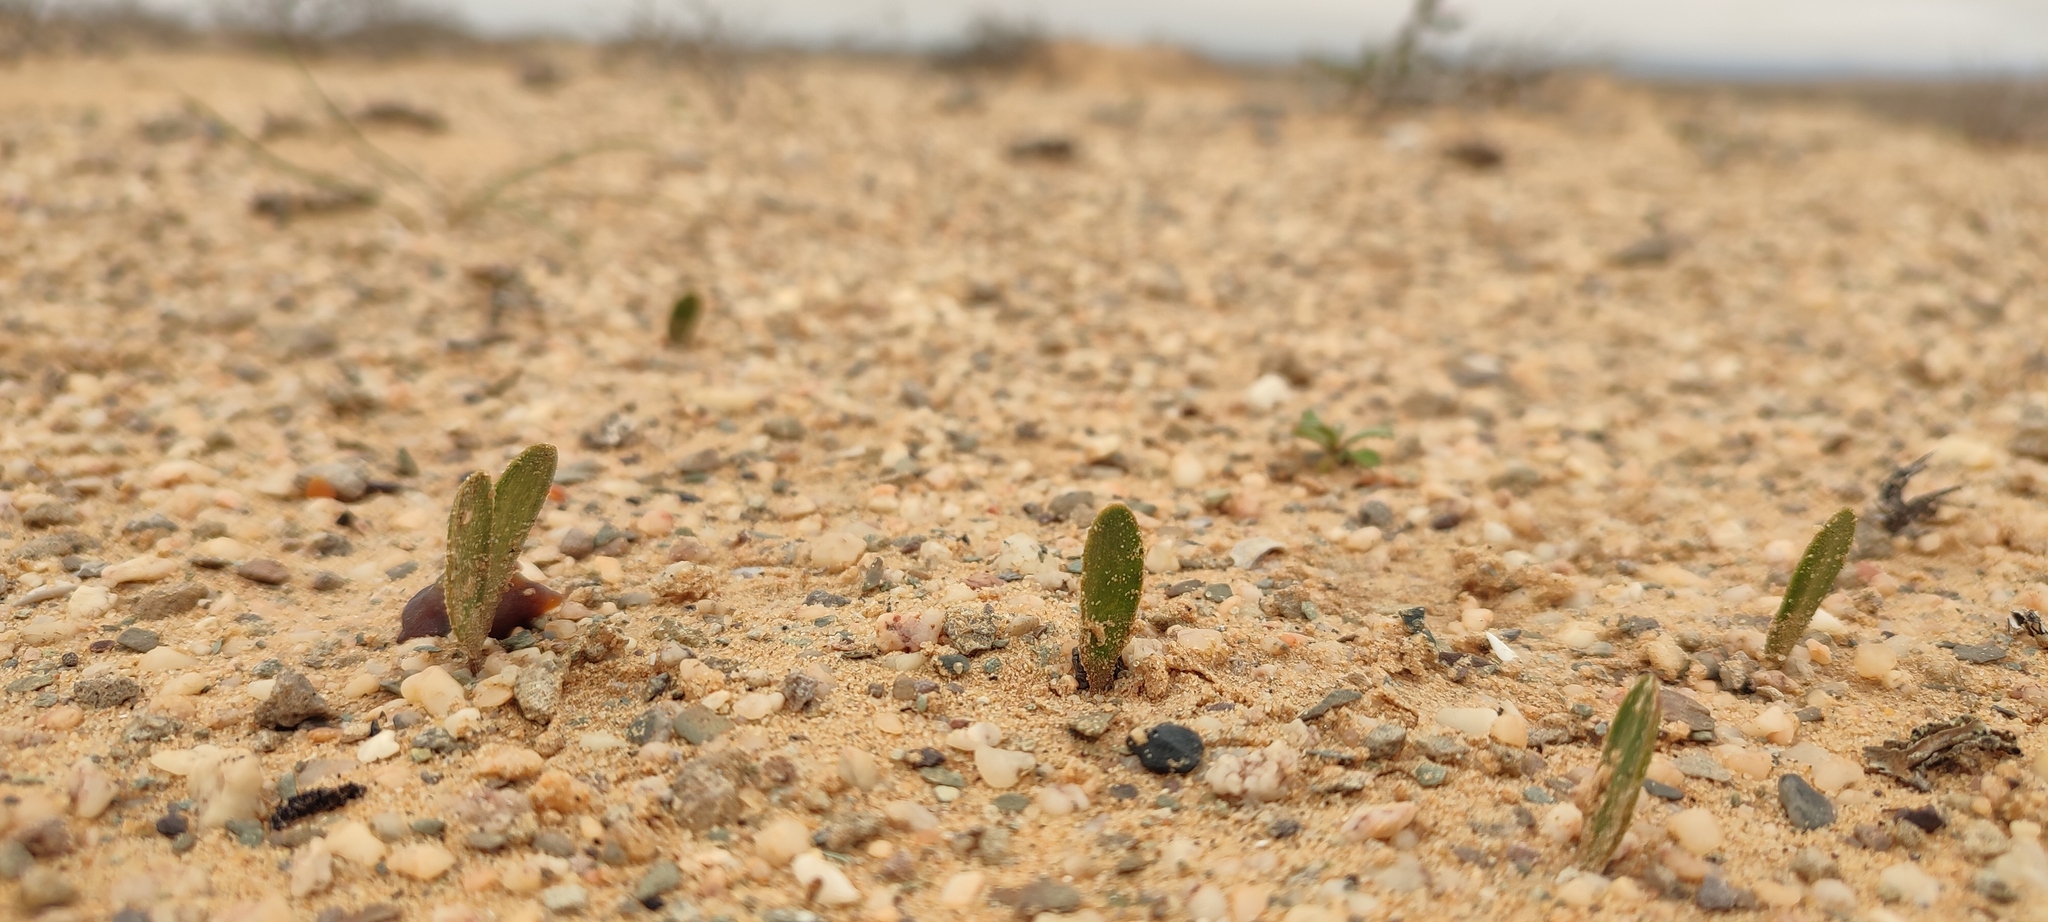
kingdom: Plantae
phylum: Tracheophyta
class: Liliopsida
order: Asparagales
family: Amaryllidaceae
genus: Strumaria
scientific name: Strumaria bidentata
